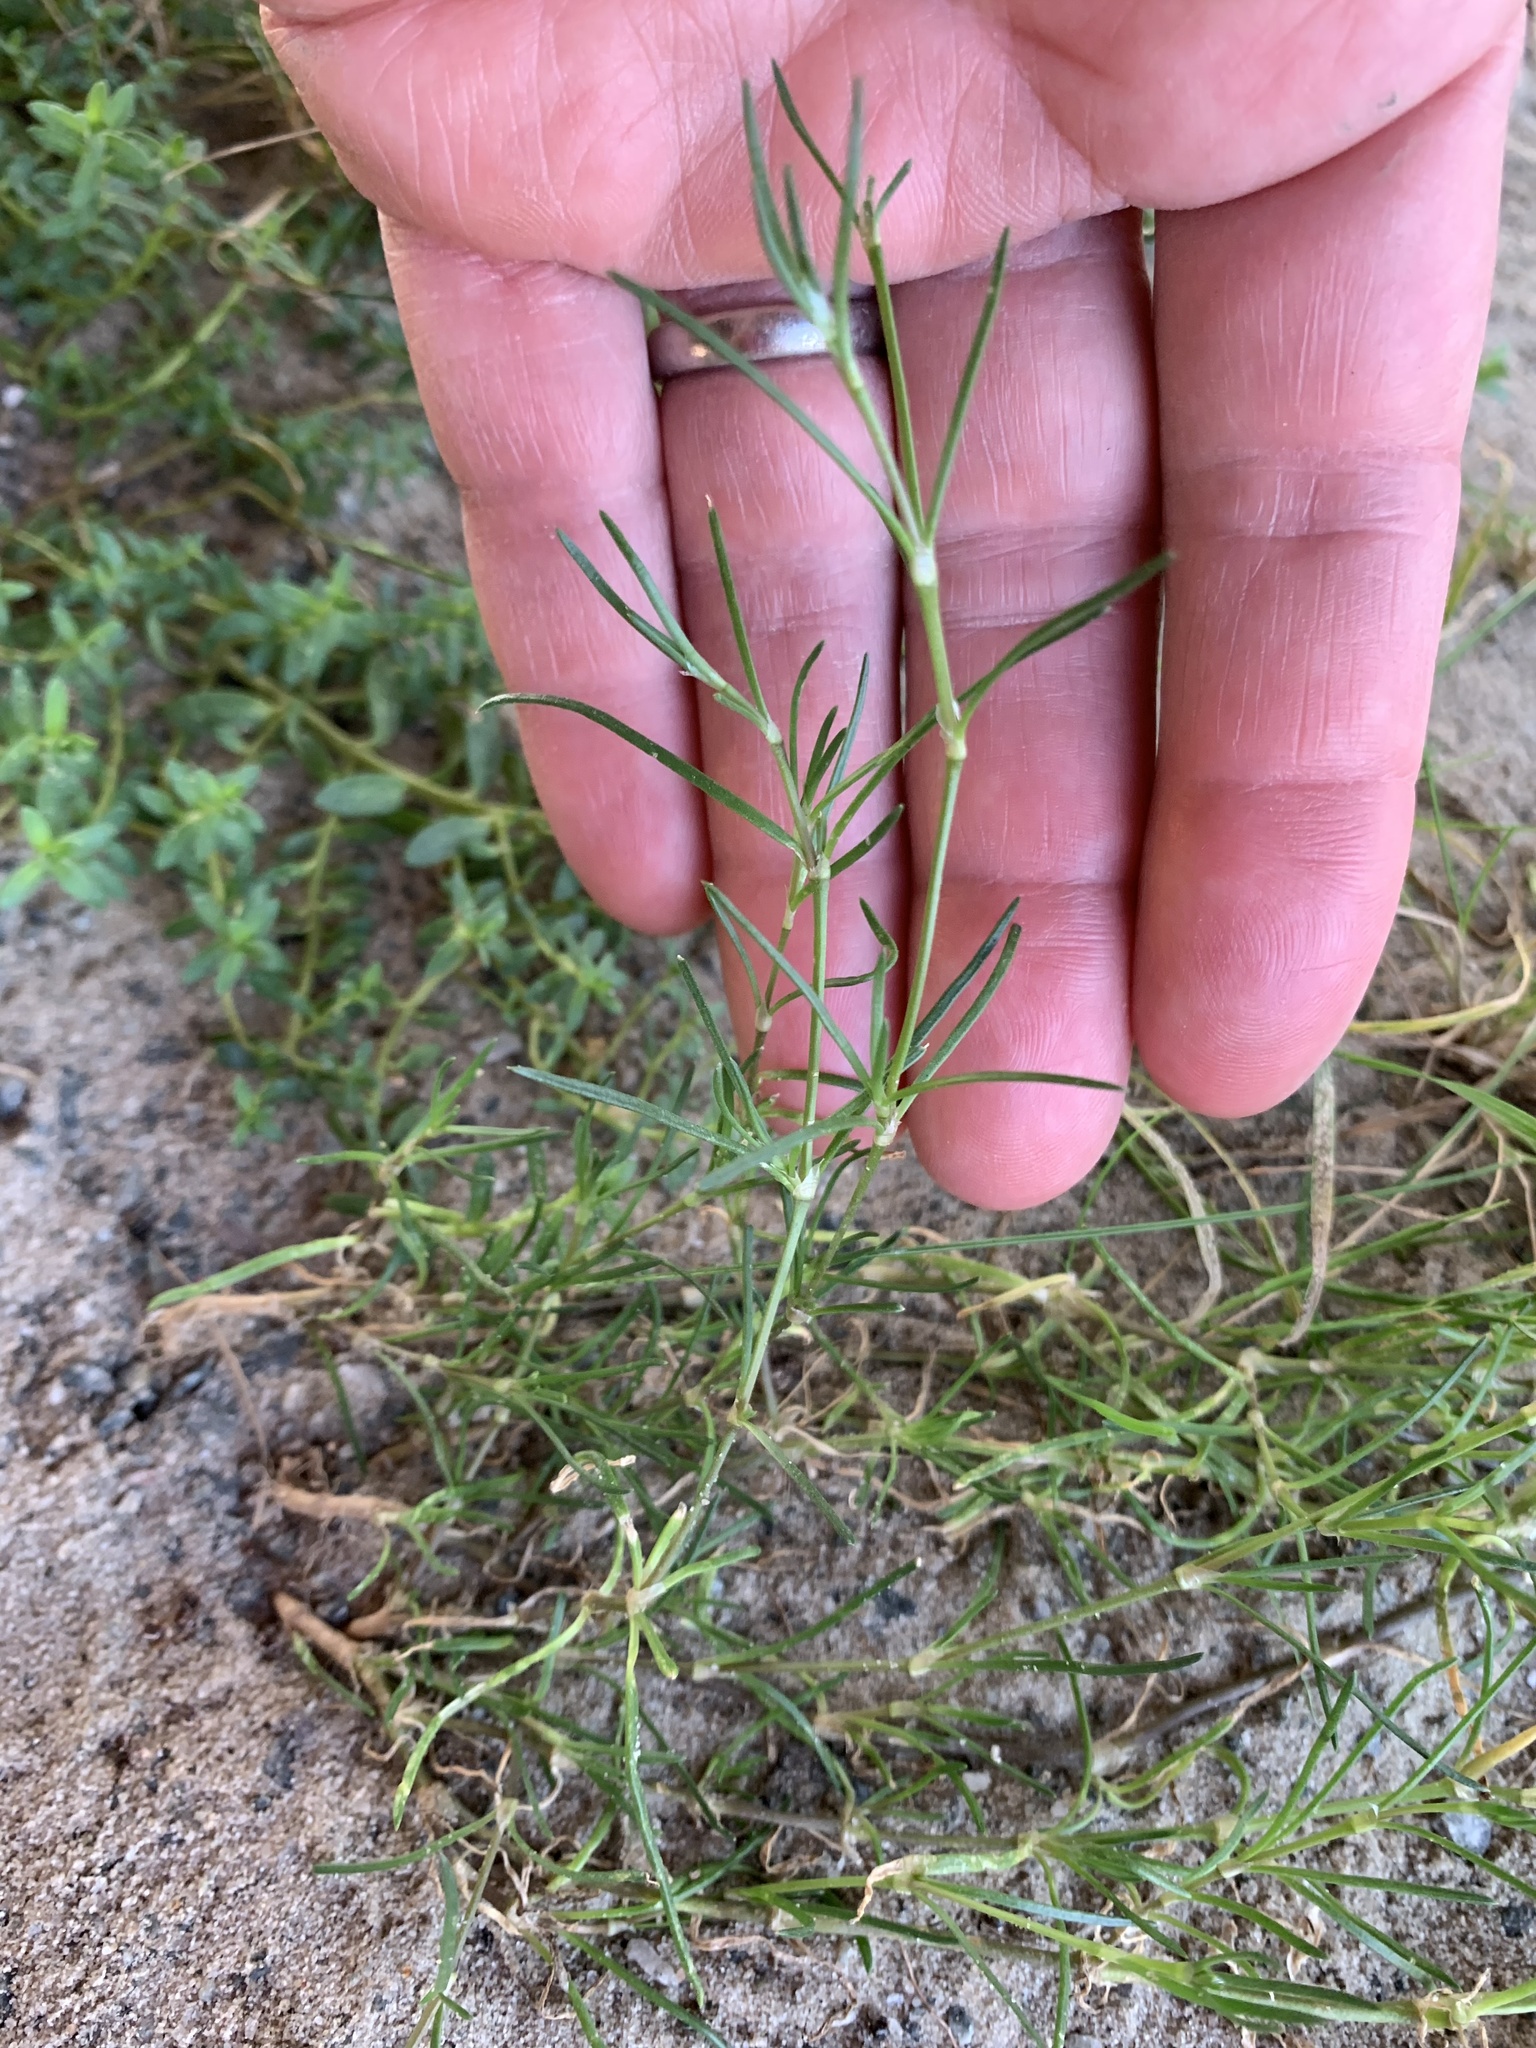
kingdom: Plantae
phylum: Tracheophyta
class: Magnoliopsida
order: Caryophyllales
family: Caryophyllaceae
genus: Spergularia
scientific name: Spergularia rubra
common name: Red sand-spurrey
